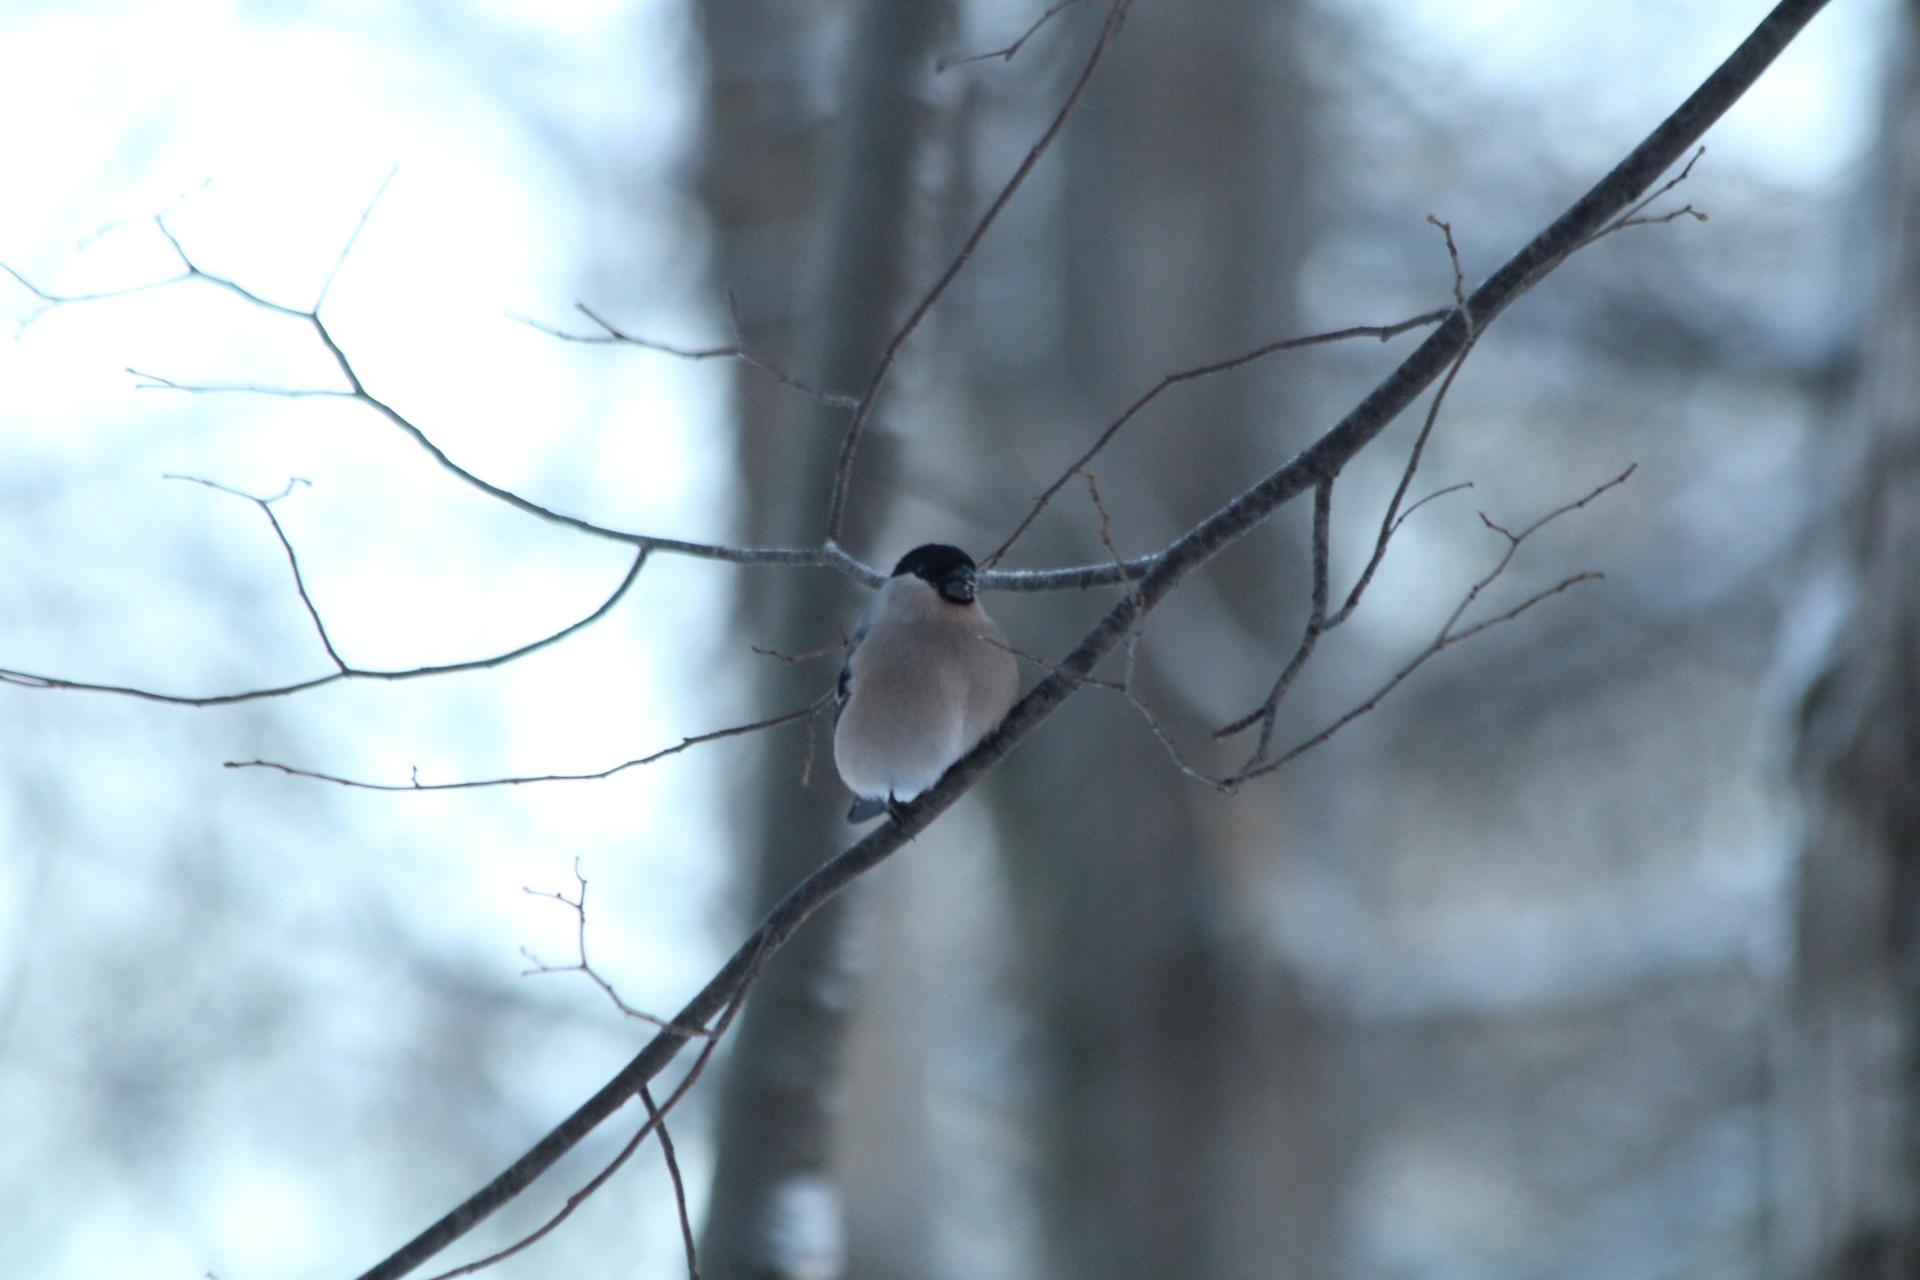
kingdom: Animalia
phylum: Chordata
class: Aves
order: Passeriformes
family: Fringillidae
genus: Pyrrhula
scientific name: Pyrrhula pyrrhula
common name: Eurasian bullfinch
